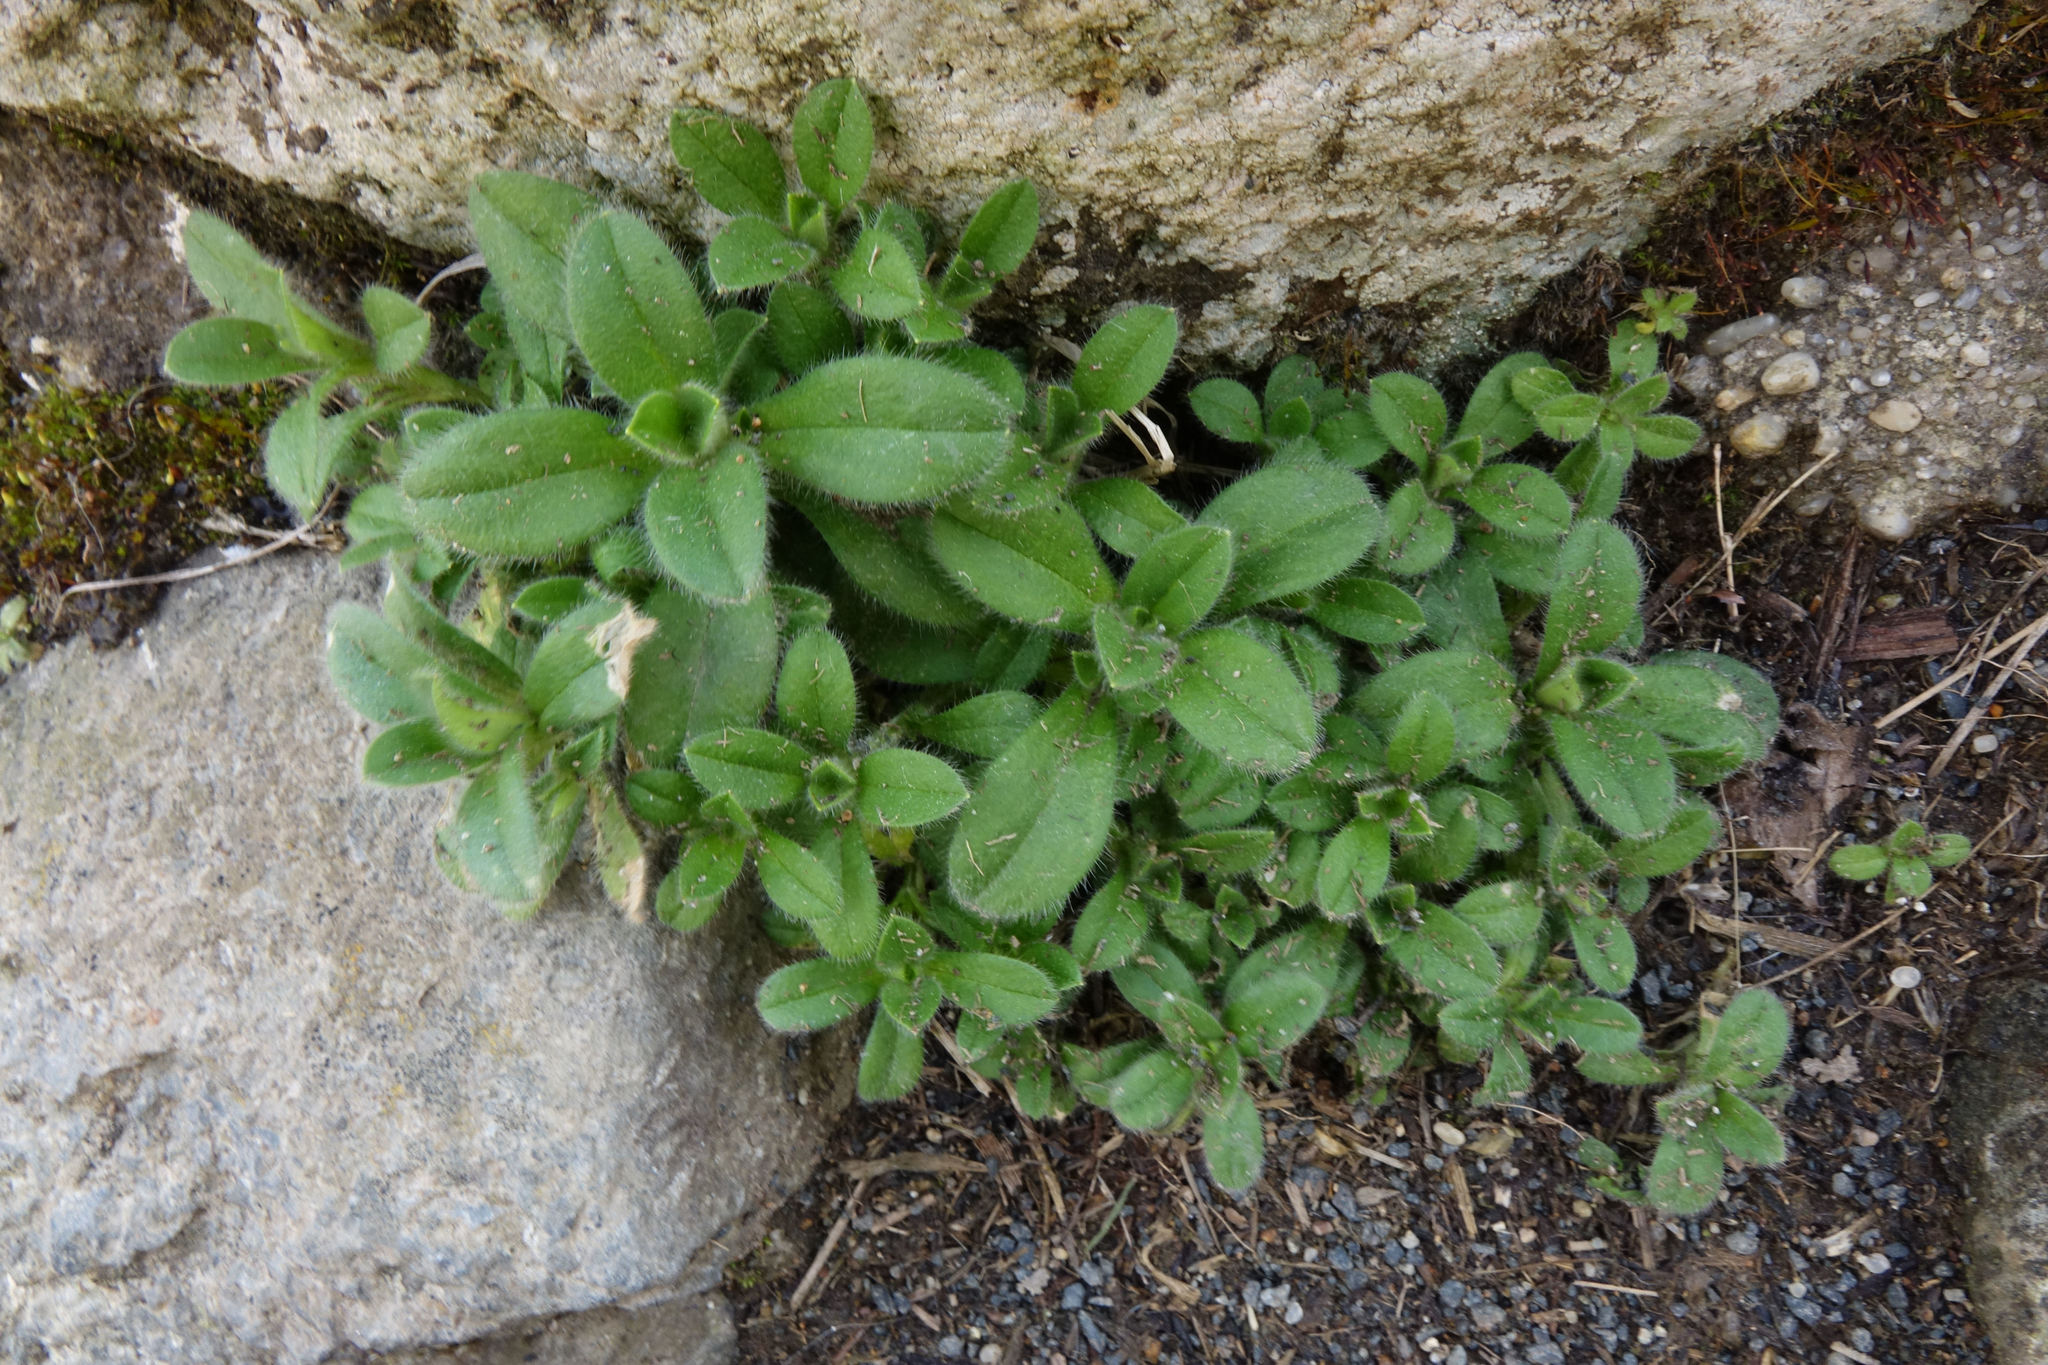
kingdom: Plantae
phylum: Tracheophyta
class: Magnoliopsida
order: Caryophyllales
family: Caryophyllaceae
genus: Cerastium
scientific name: Cerastium glomeratum
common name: Sticky chickweed
